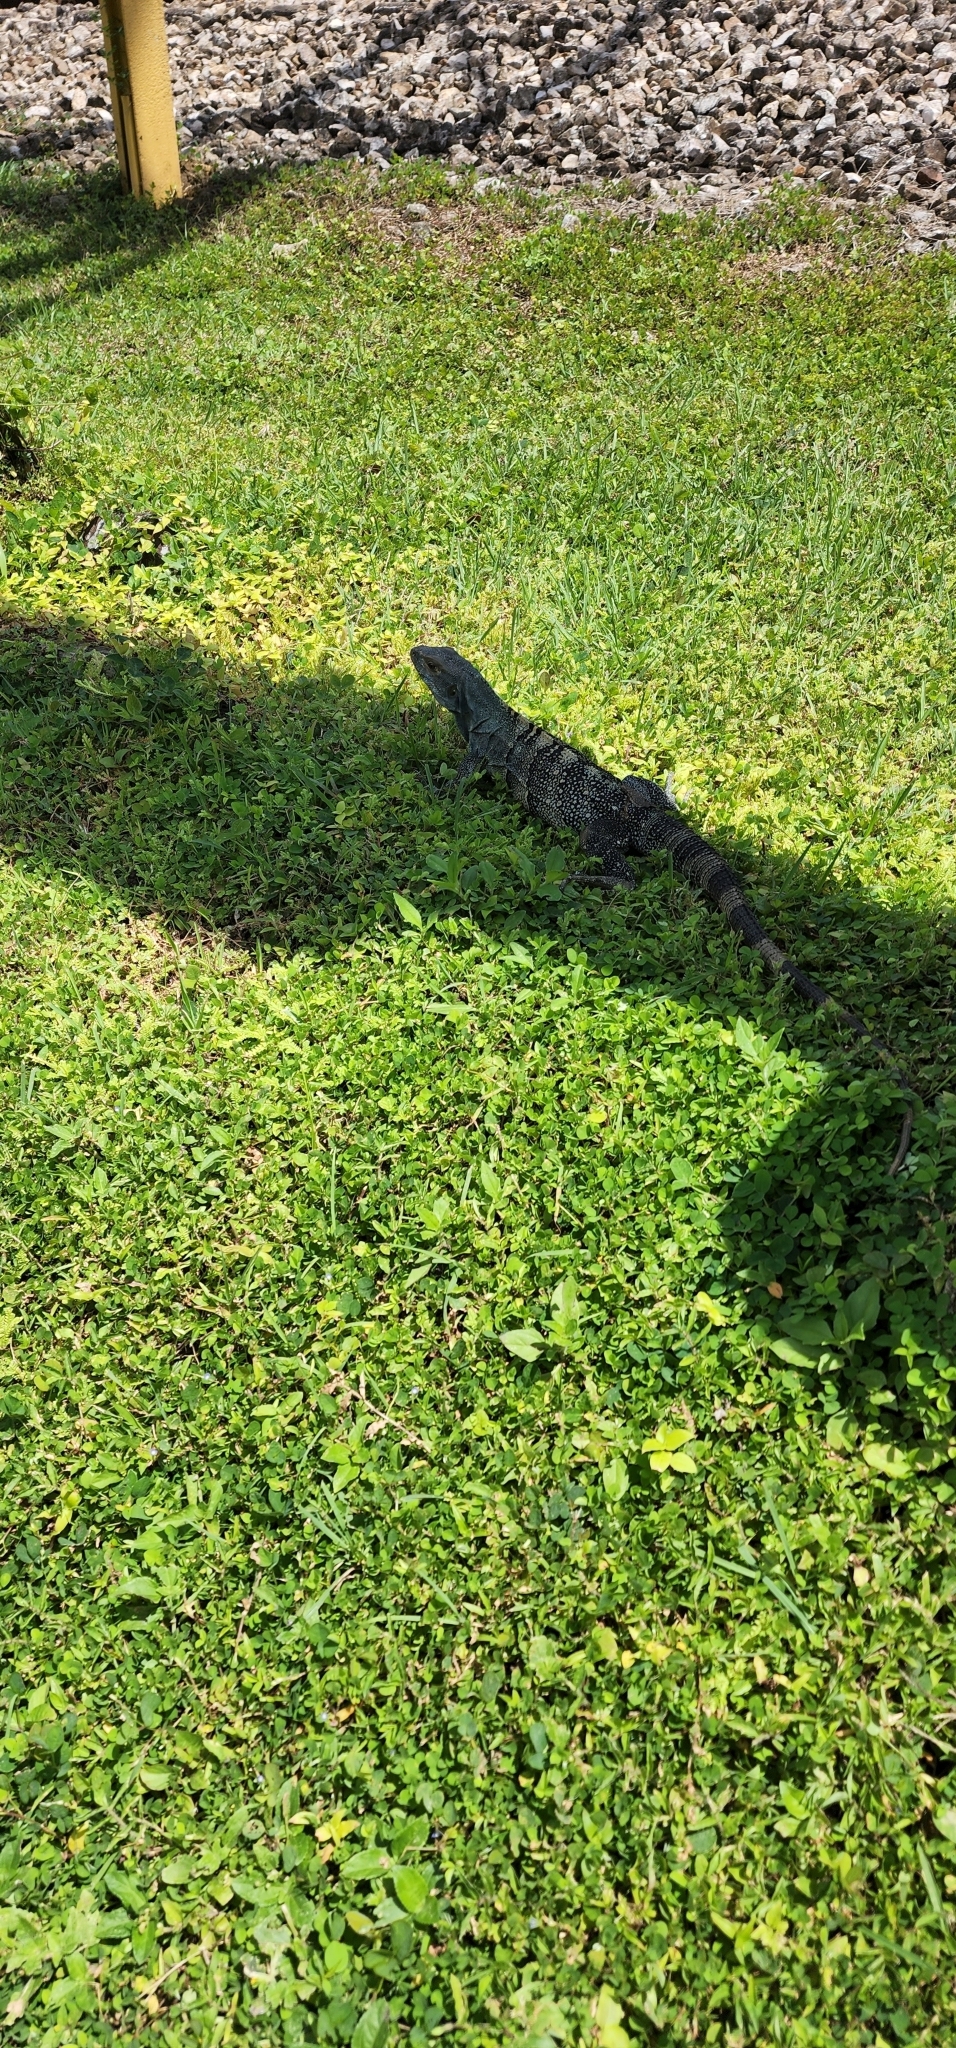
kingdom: Animalia
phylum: Chordata
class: Squamata
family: Iguanidae
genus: Ctenosaura
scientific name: Ctenosaura similis
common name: Black spiny-tailed iguana
